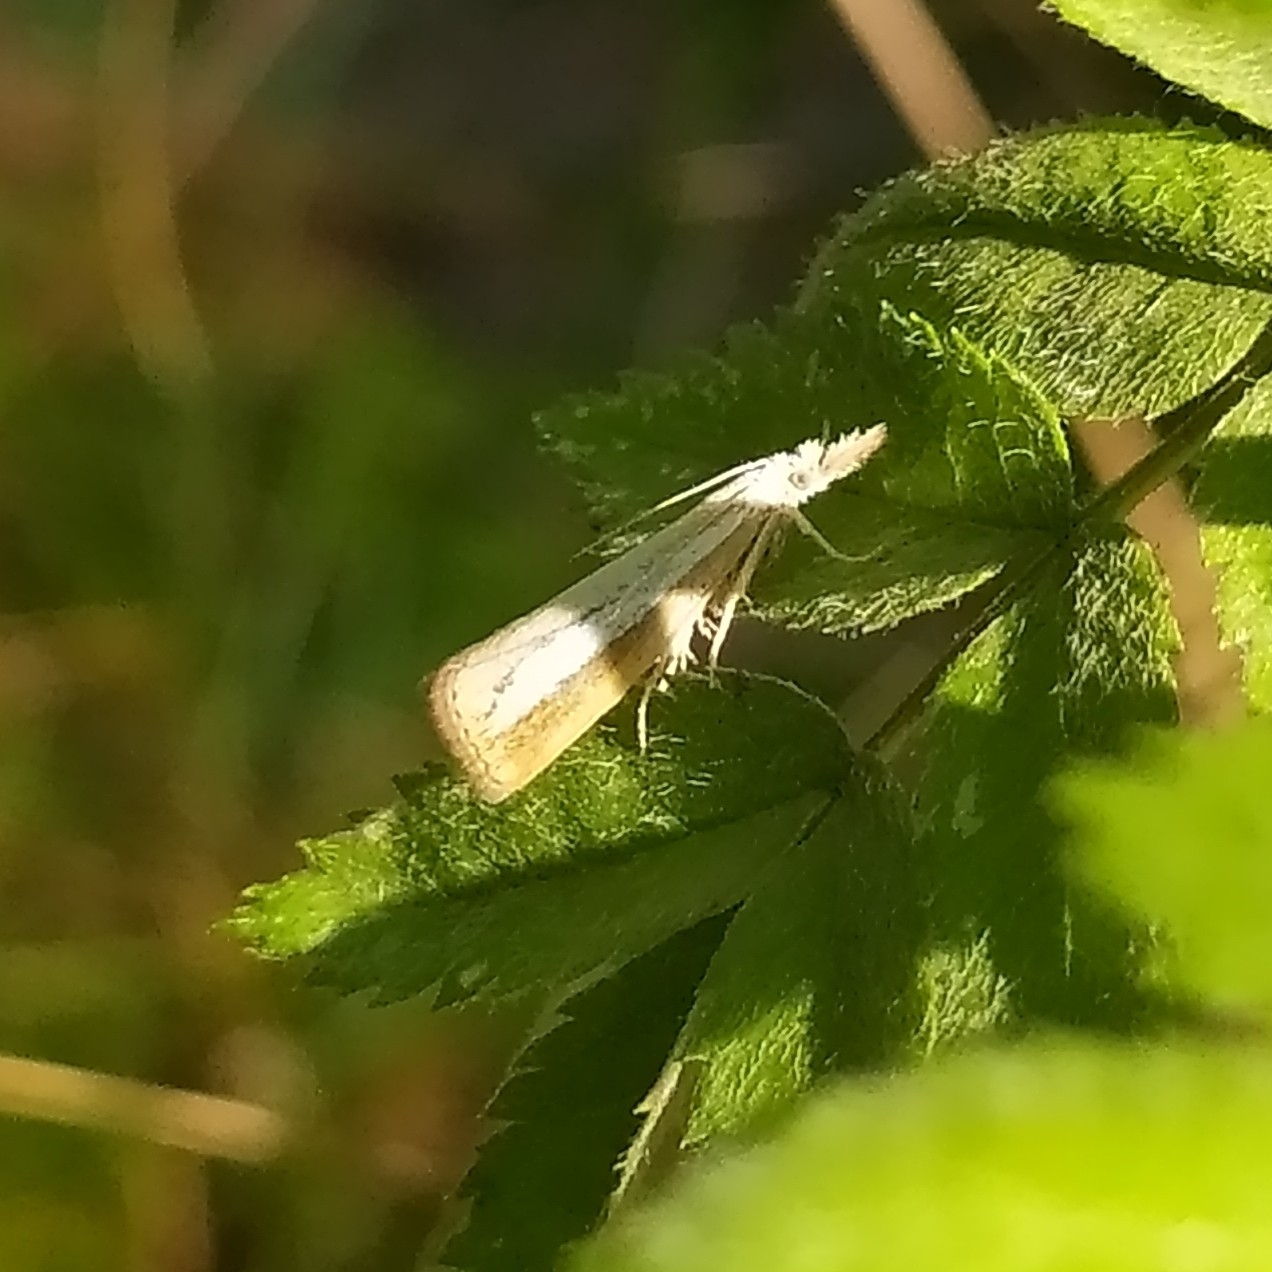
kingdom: Animalia
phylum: Arthropoda
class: Insecta
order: Lepidoptera
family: Crambidae
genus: Catoptria
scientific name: Catoptria margaritellus
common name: Pearl-band grass veneer
